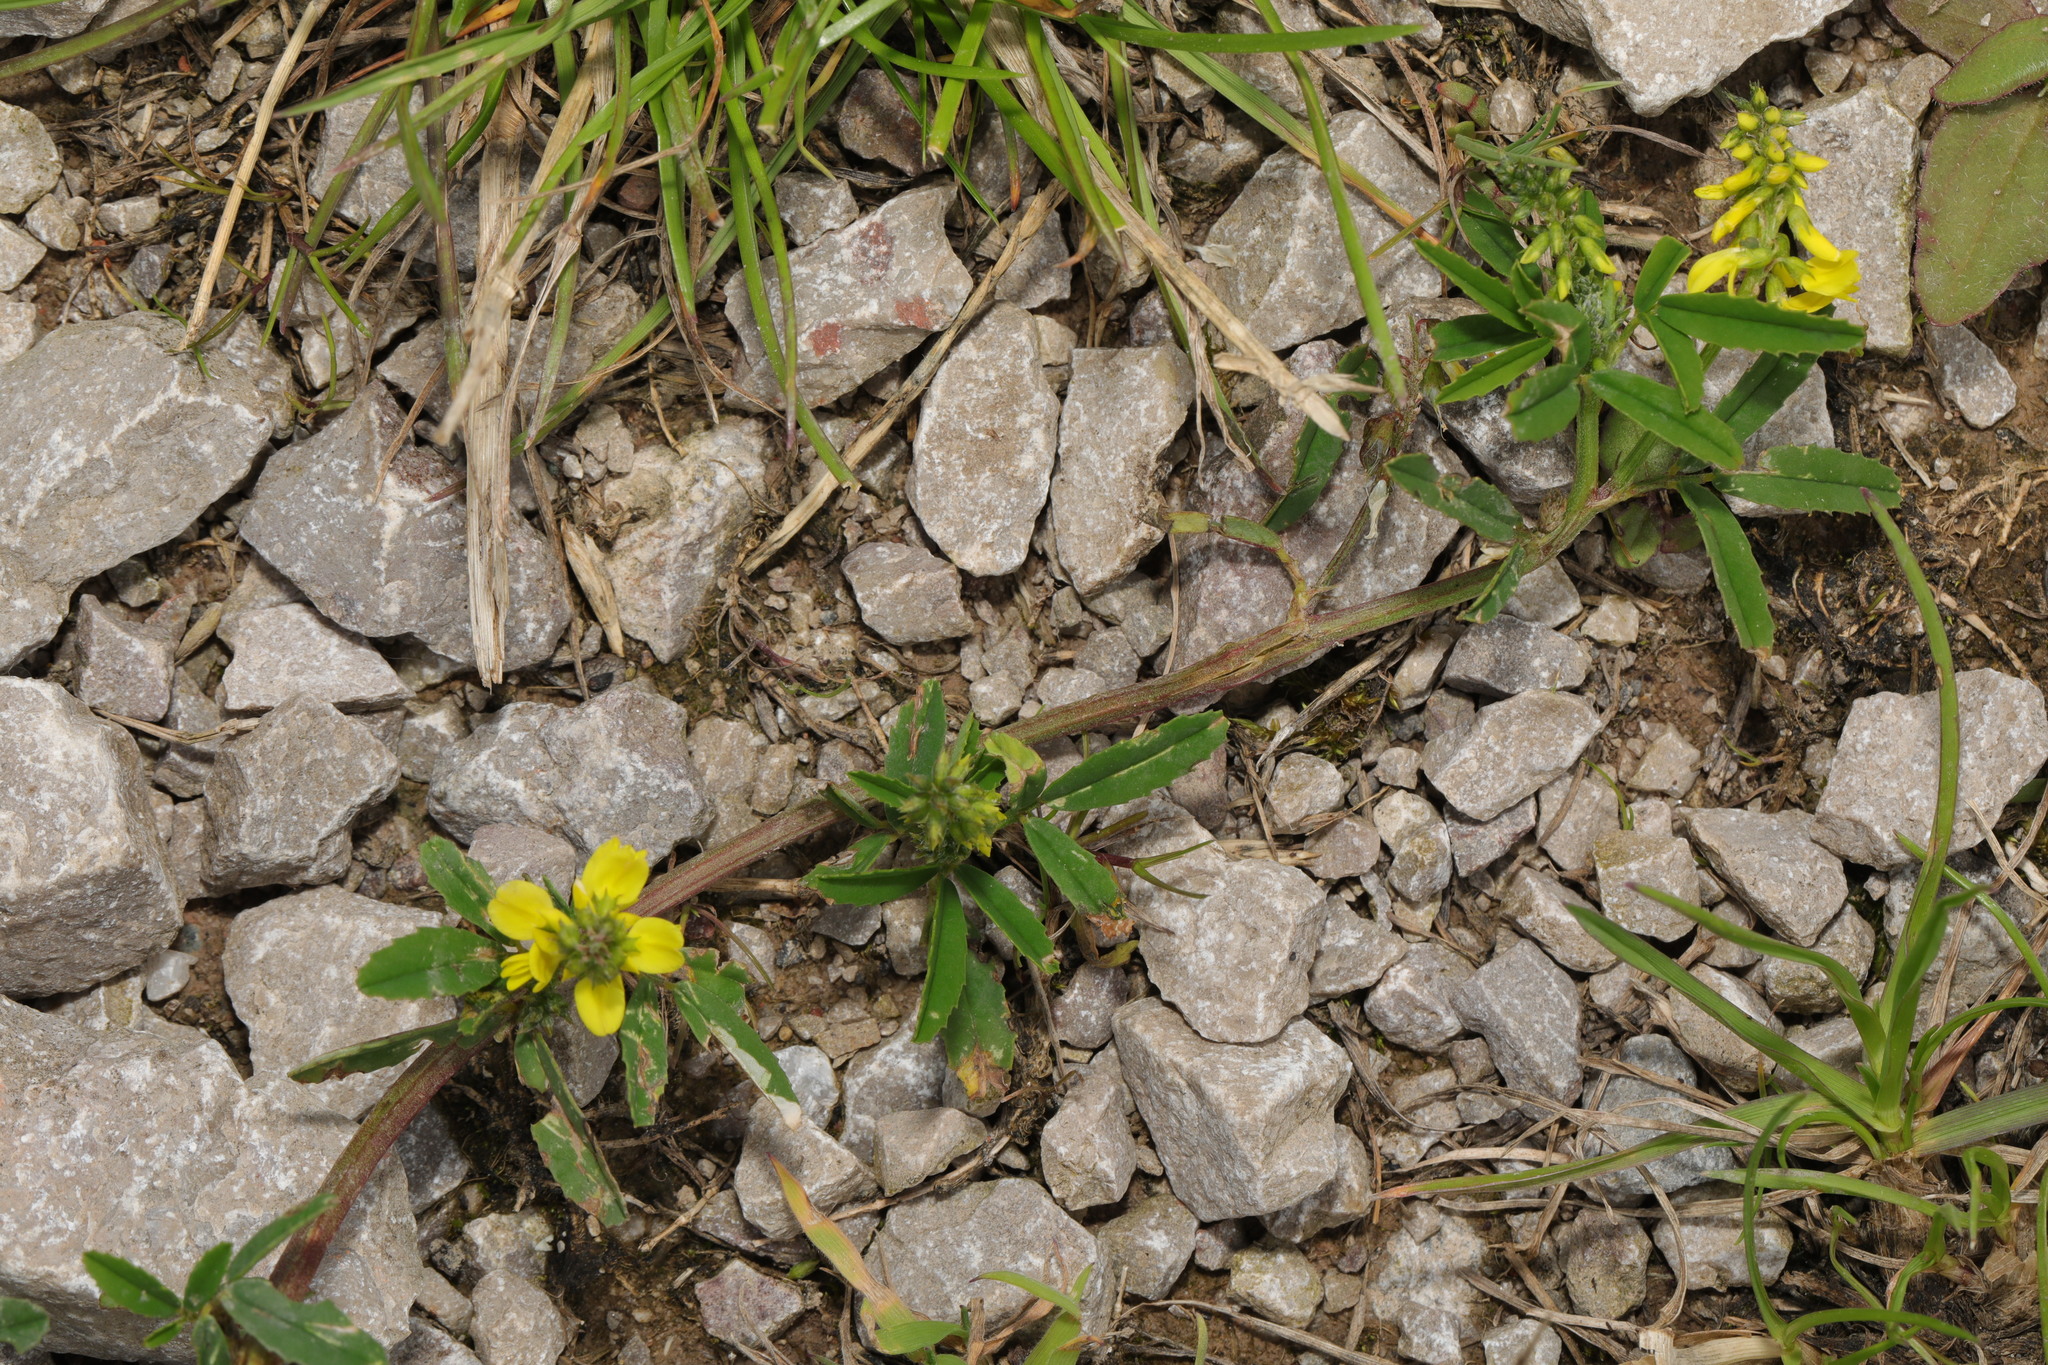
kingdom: Plantae
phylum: Tracheophyta
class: Magnoliopsida
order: Fabales
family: Fabaceae
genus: Melilotus
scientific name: Melilotus officinalis
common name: Sweetclover
